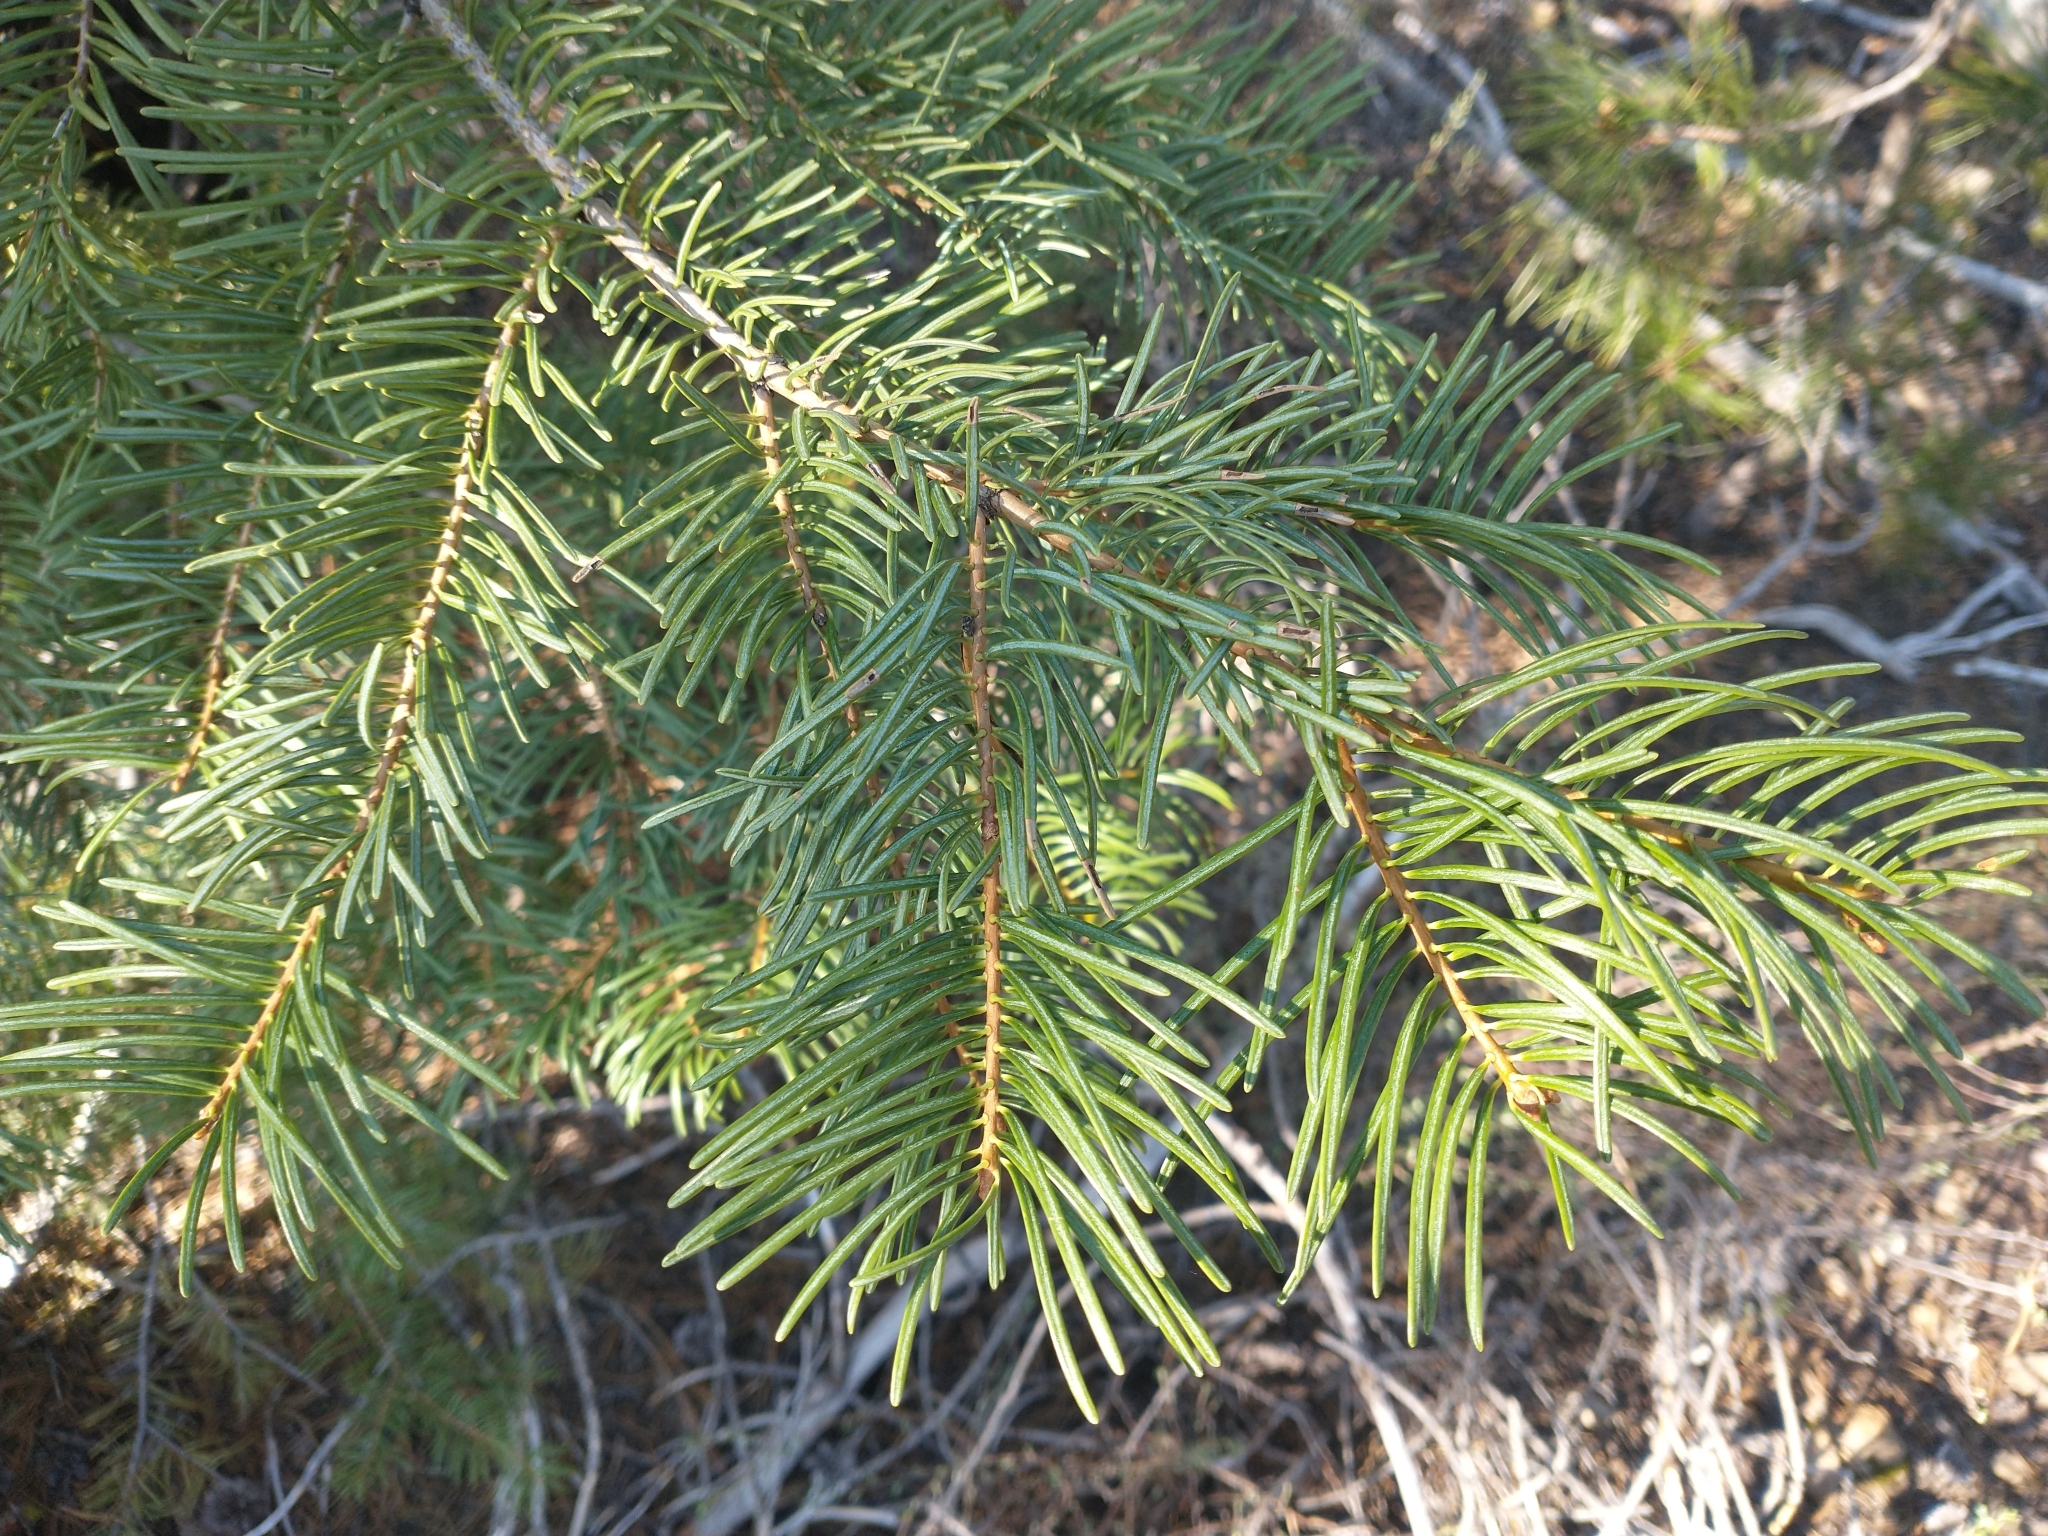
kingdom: Plantae
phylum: Tracheophyta
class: Pinopsida
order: Pinales
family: Pinaceae
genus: Abies
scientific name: Abies concolor
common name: Colorado fir
